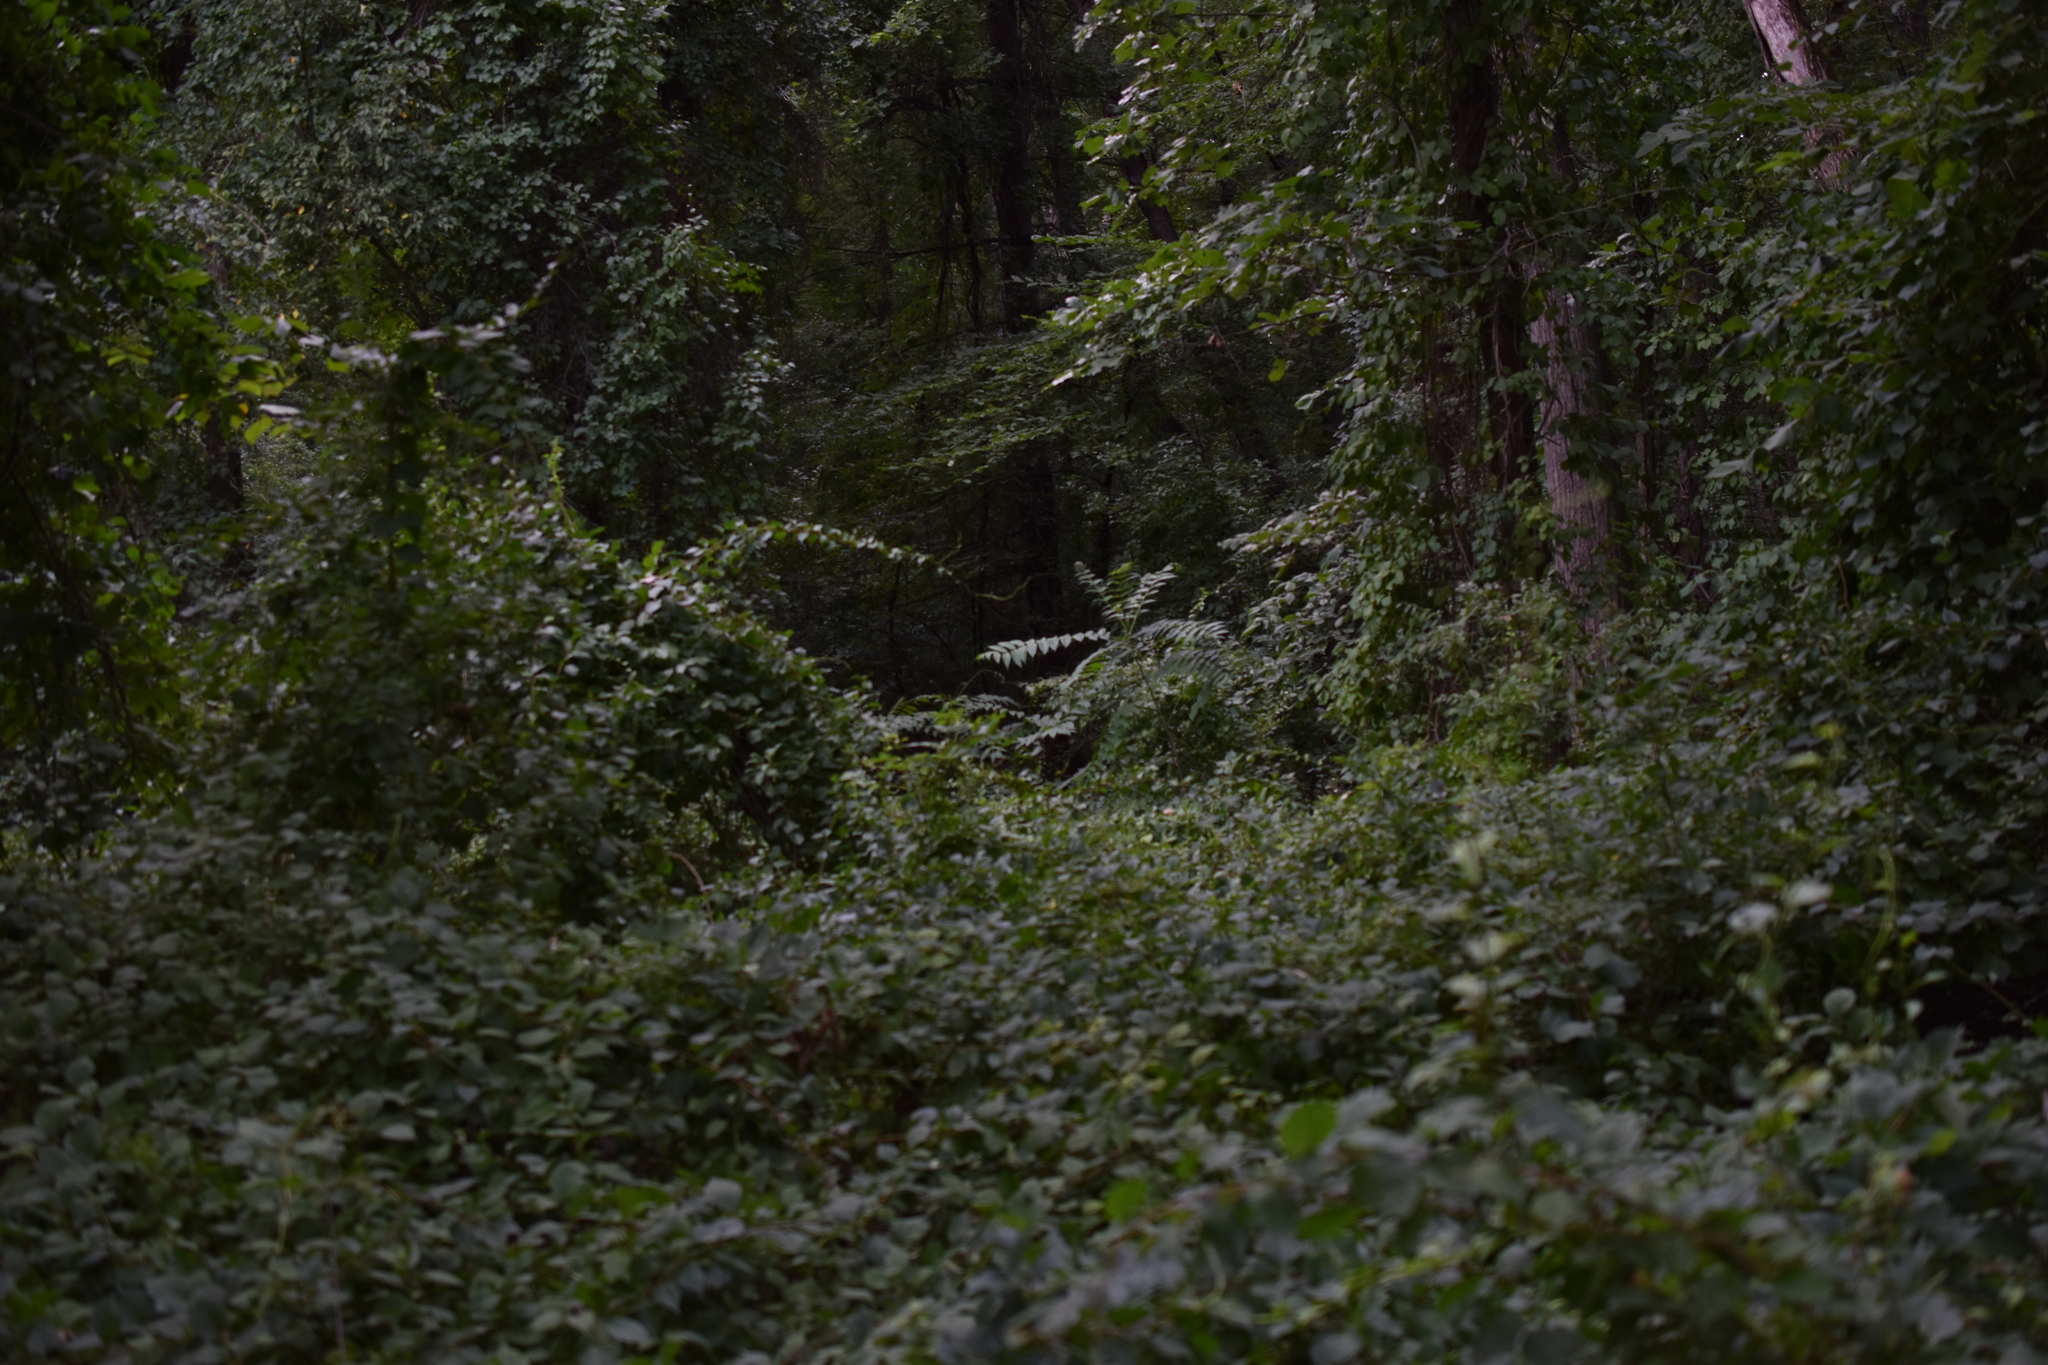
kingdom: Plantae
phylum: Tracheophyta
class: Magnoliopsida
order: Celastrales
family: Celastraceae
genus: Celastrus
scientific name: Celastrus orbiculatus
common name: Oriental bittersweet
